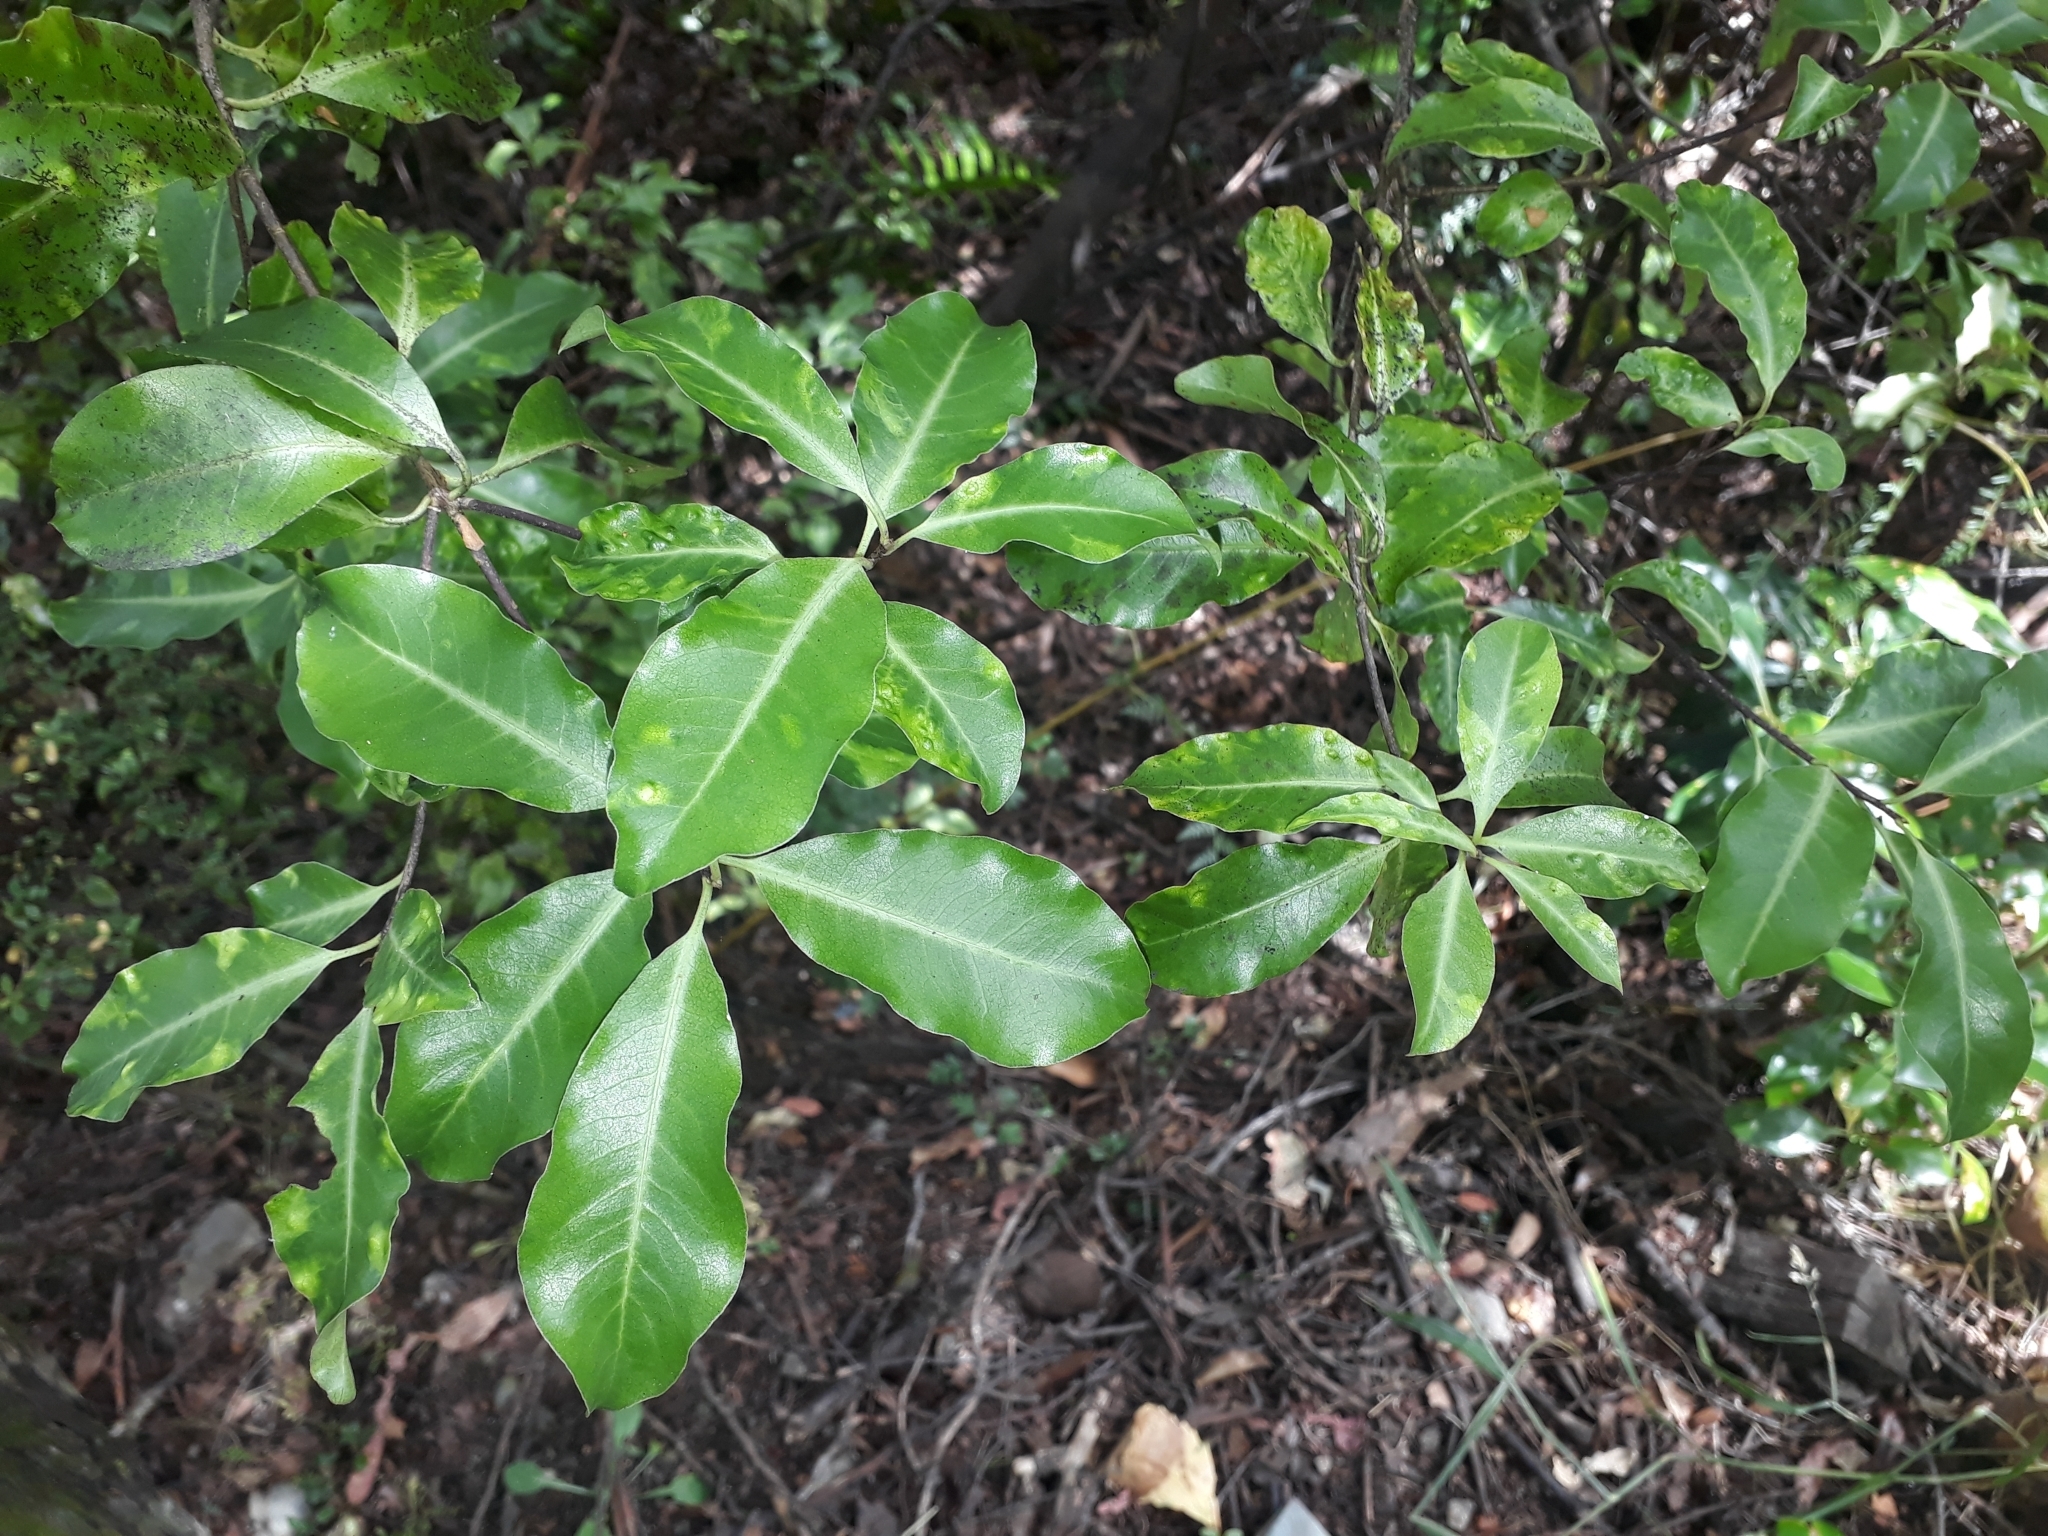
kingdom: Plantae
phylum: Tracheophyta
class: Magnoliopsida
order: Apiales
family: Pittosporaceae
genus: Pittosporum
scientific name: Pittosporum tenuifolium
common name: Kohuhu
